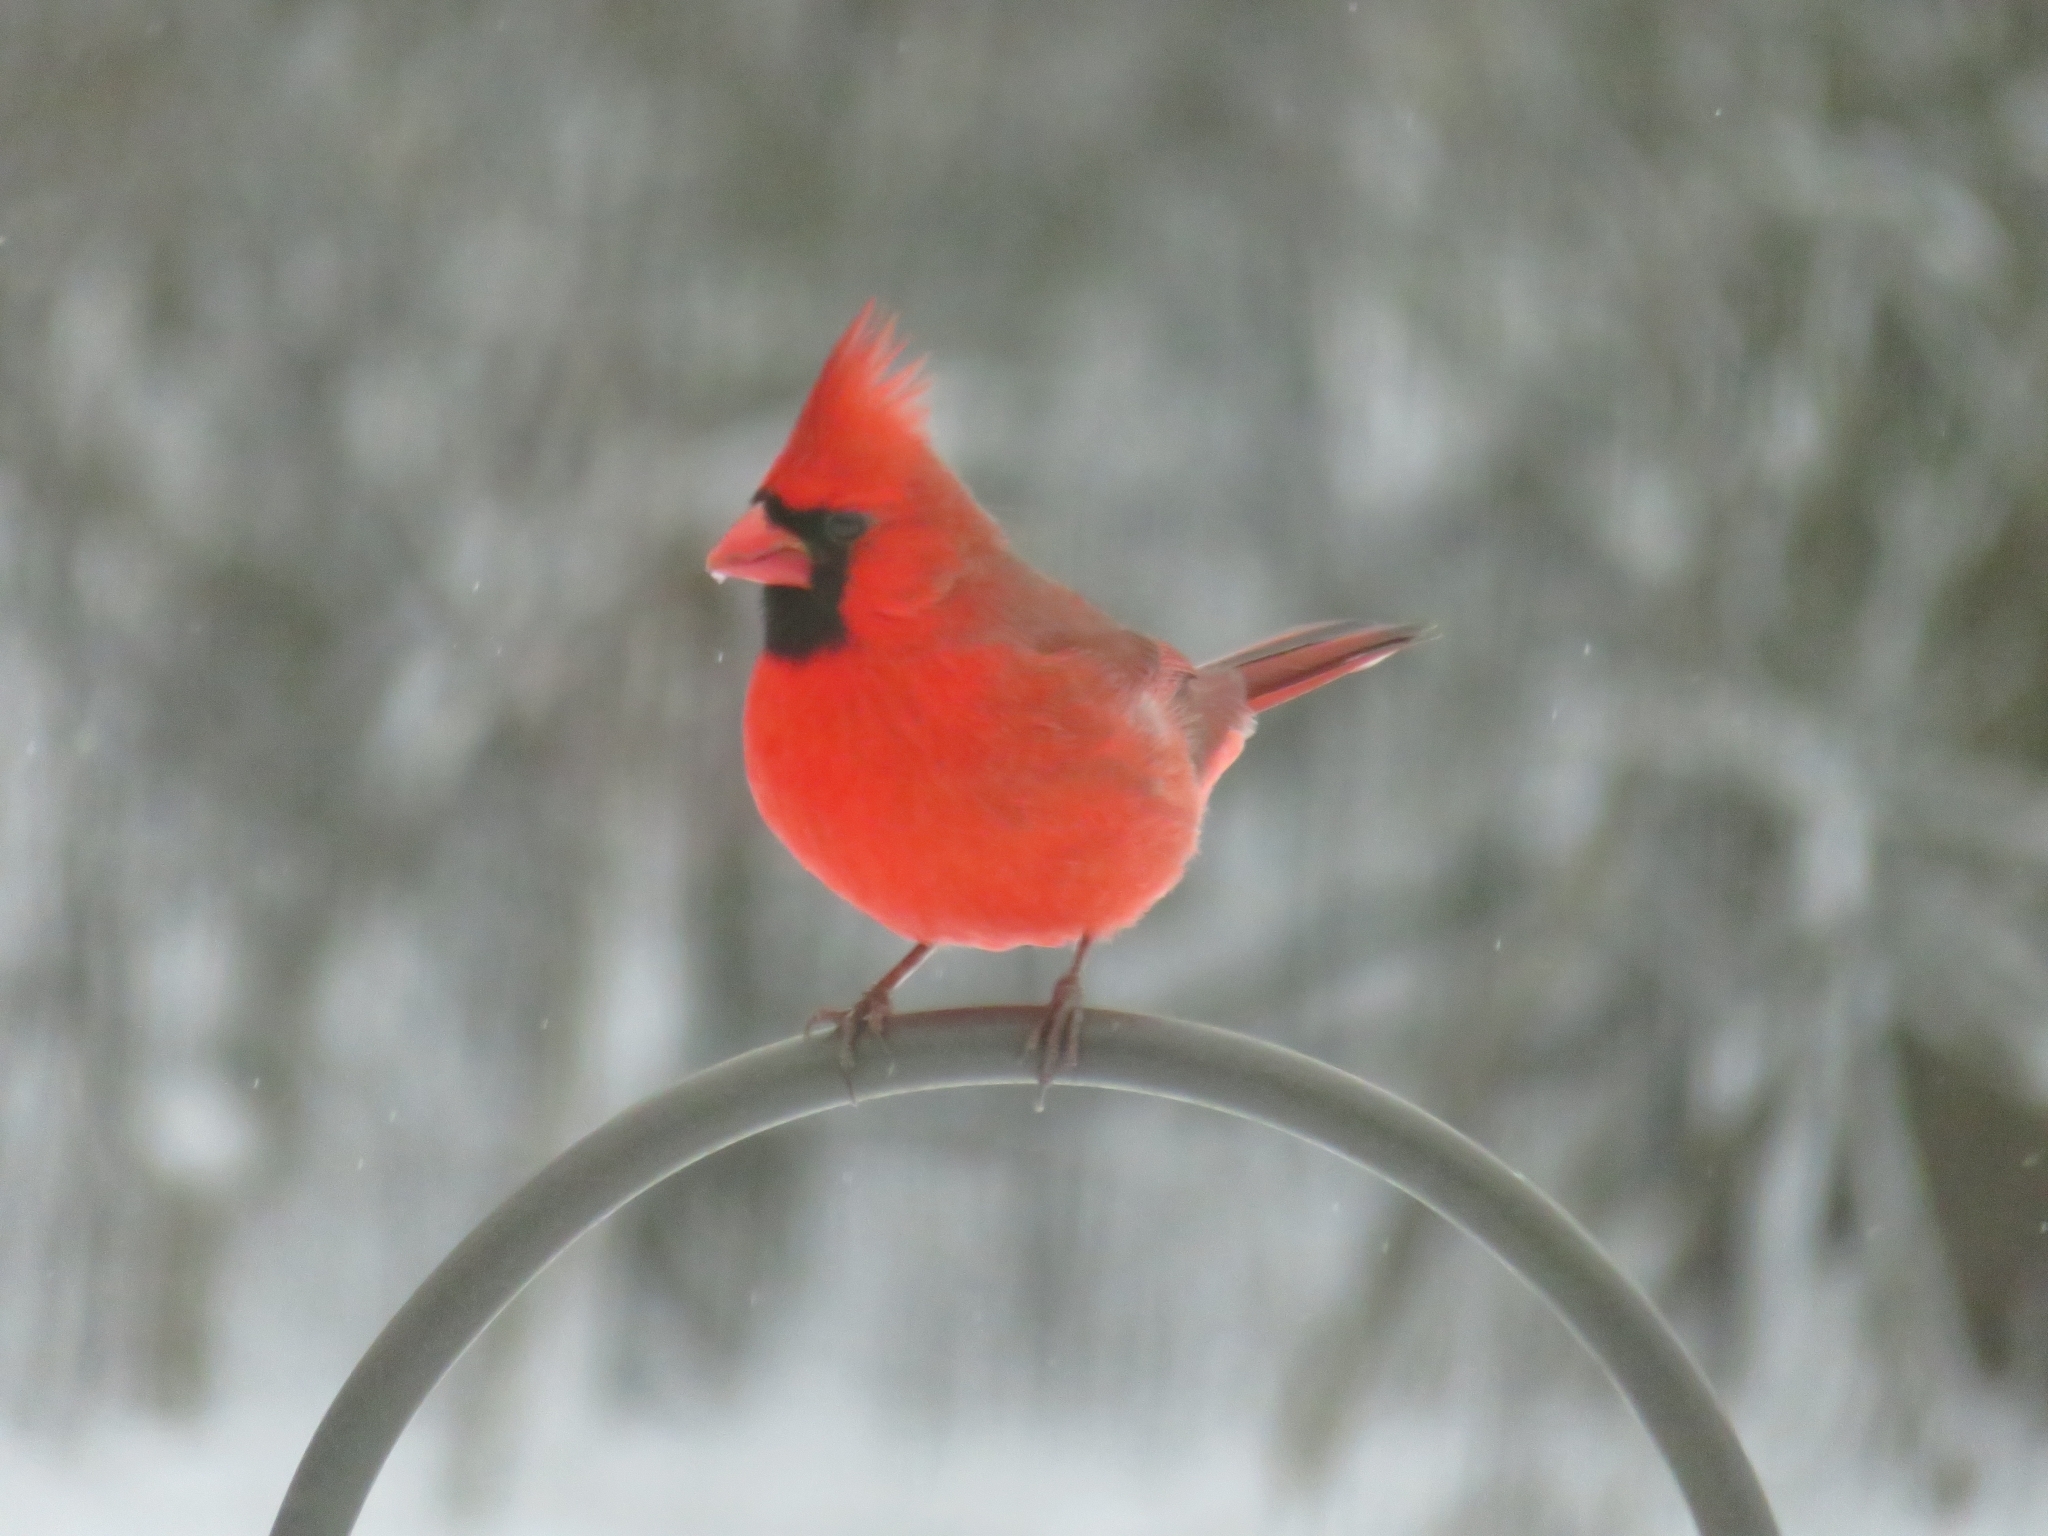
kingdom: Animalia
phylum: Chordata
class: Aves
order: Passeriformes
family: Cardinalidae
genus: Cardinalis
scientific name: Cardinalis cardinalis
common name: Northern cardinal
